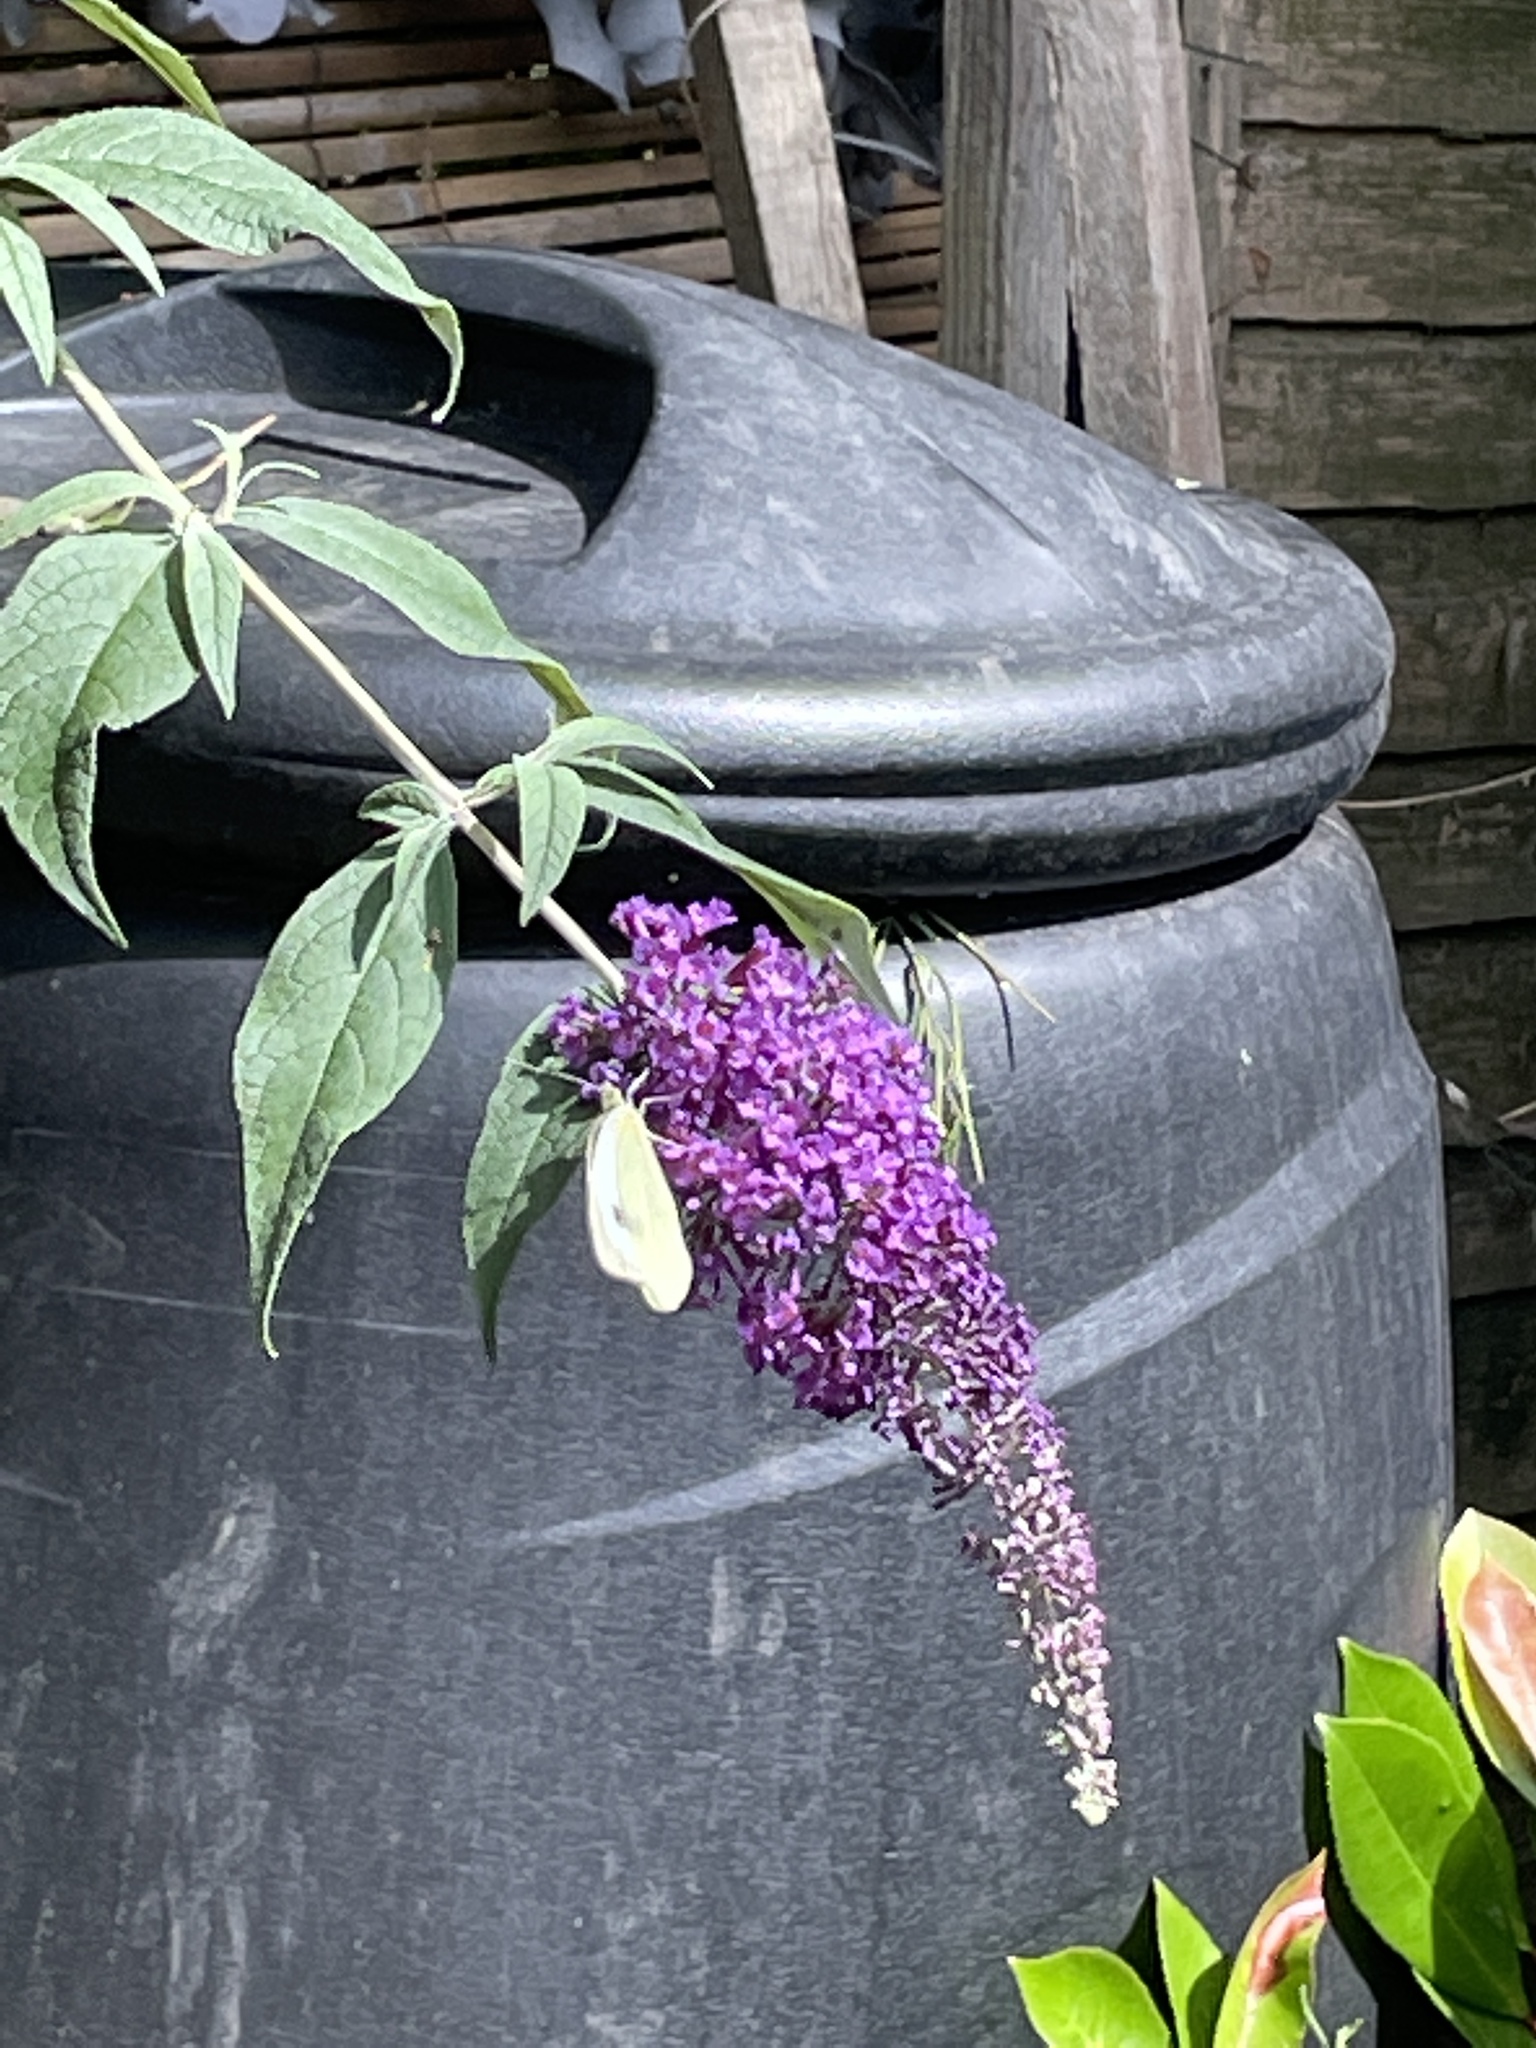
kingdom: Animalia
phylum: Arthropoda
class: Insecta
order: Lepidoptera
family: Pieridae
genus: Pieris
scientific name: Pieris brassicae
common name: Large white
